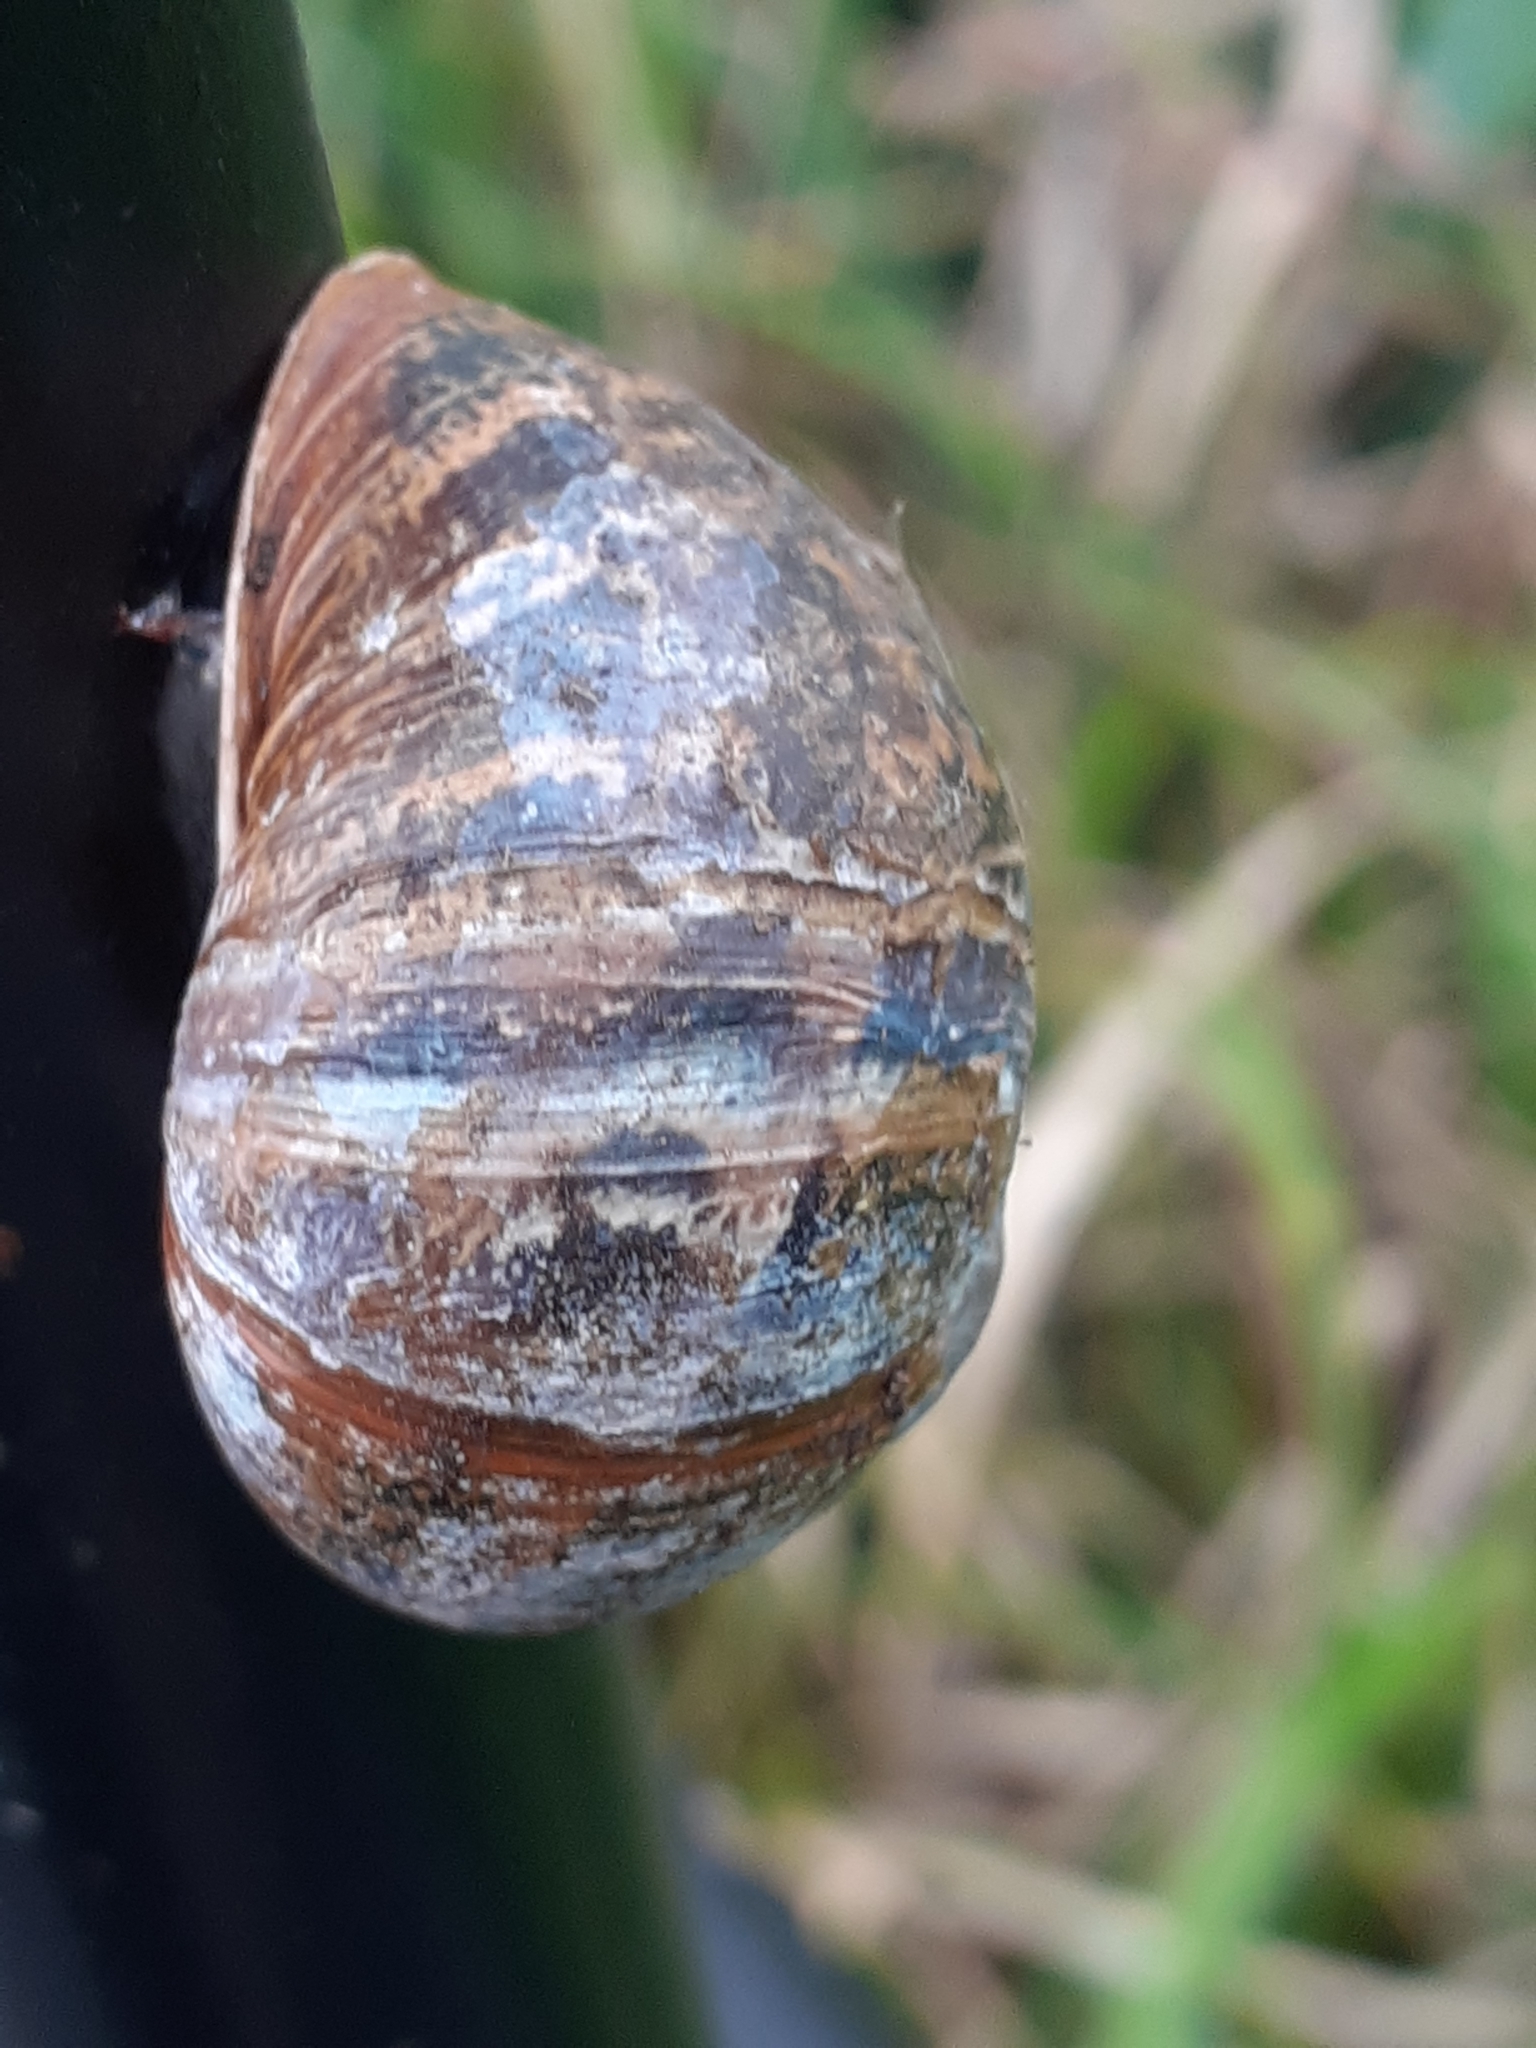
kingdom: Animalia
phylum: Mollusca
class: Gastropoda
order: Stylommatophora
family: Helicidae
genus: Cornu
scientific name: Cornu aspersum
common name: Brown garden snail
